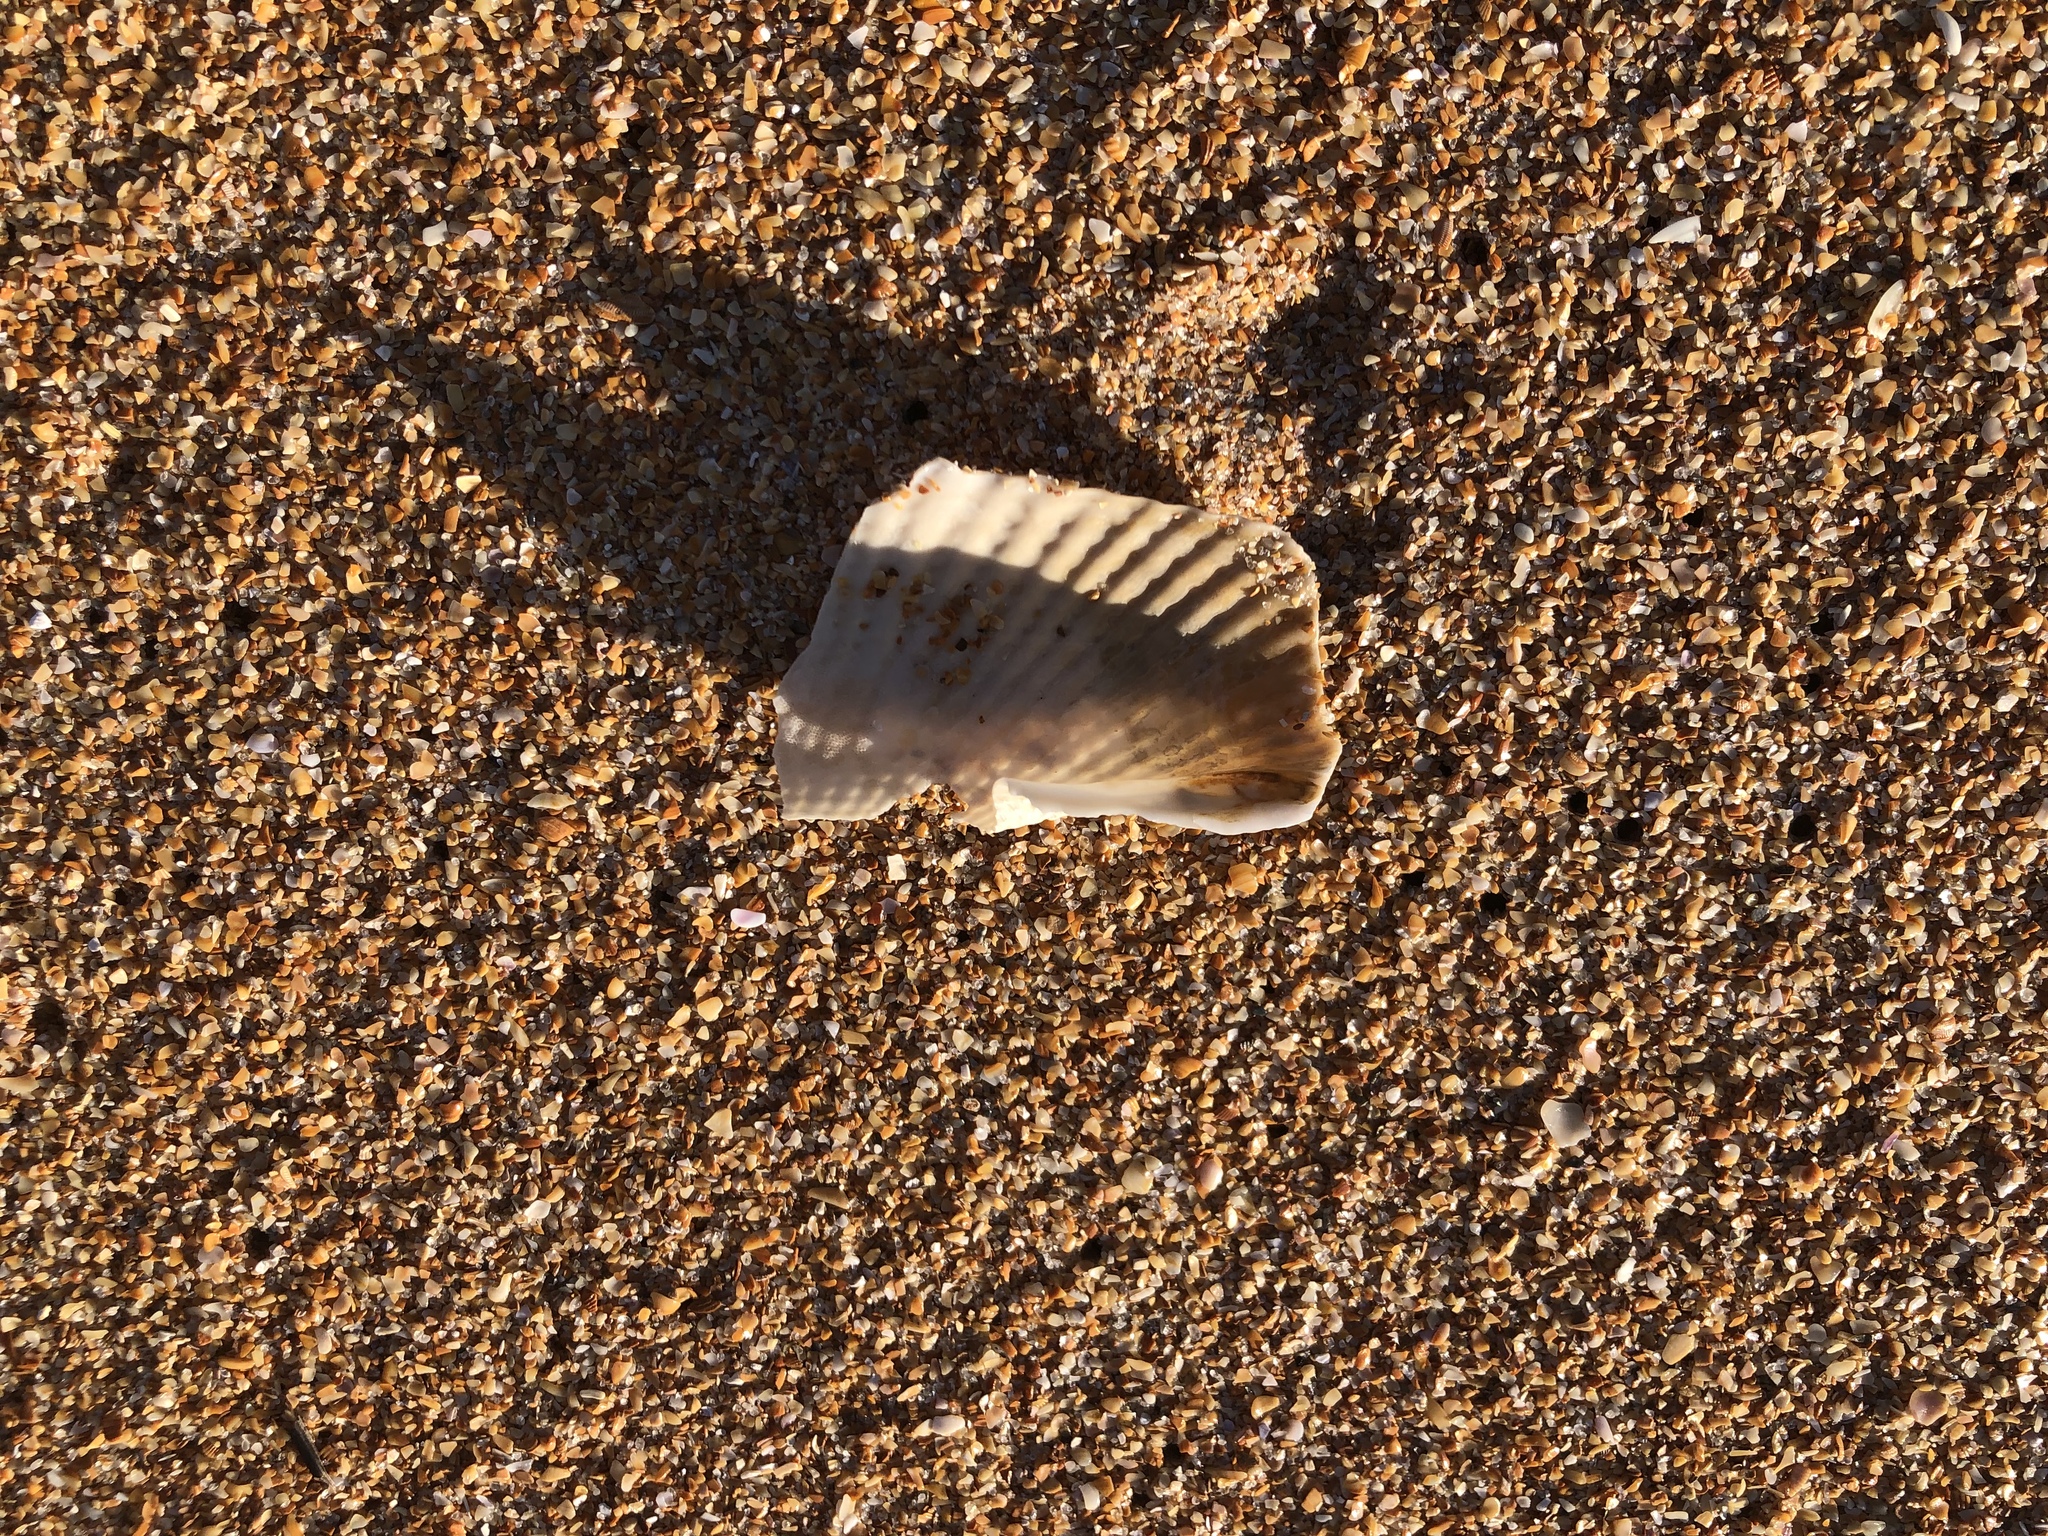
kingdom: Animalia
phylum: Mollusca
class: Bivalvia
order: Myida
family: Pholadidae
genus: Cyrtopleura
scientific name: Cyrtopleura costata
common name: Angel wing
